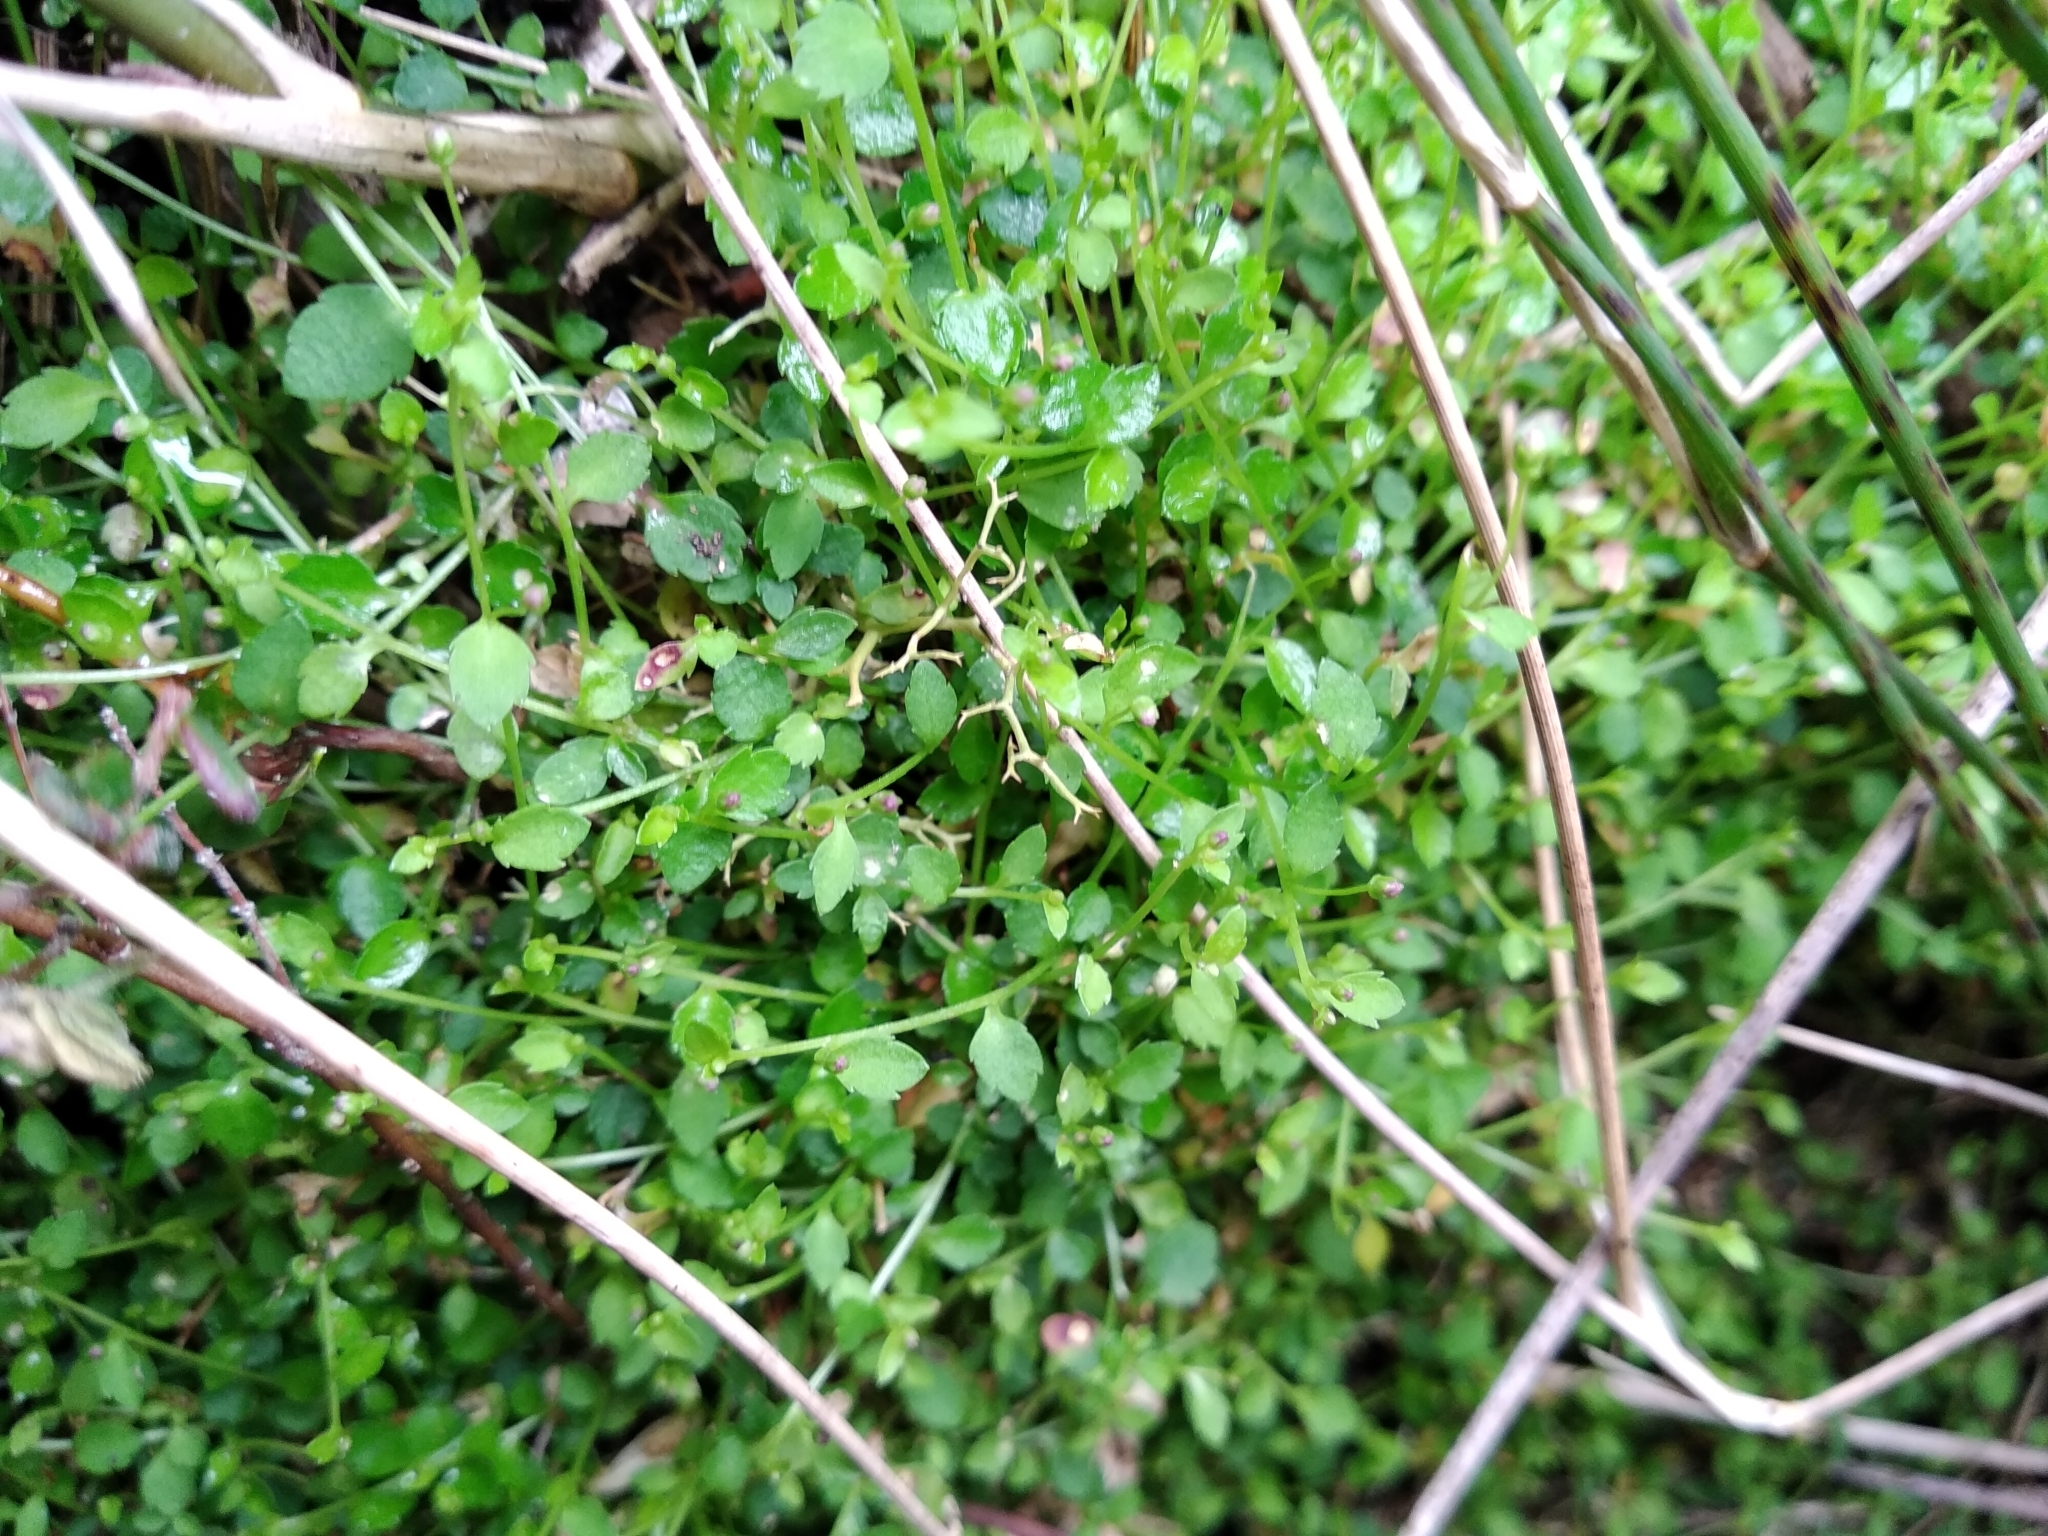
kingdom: Plantae
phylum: Tracheophyta
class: Magnoliopsida
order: Asterales
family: Campanulaceae
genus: Unigenes
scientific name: Unigenes humifusa
